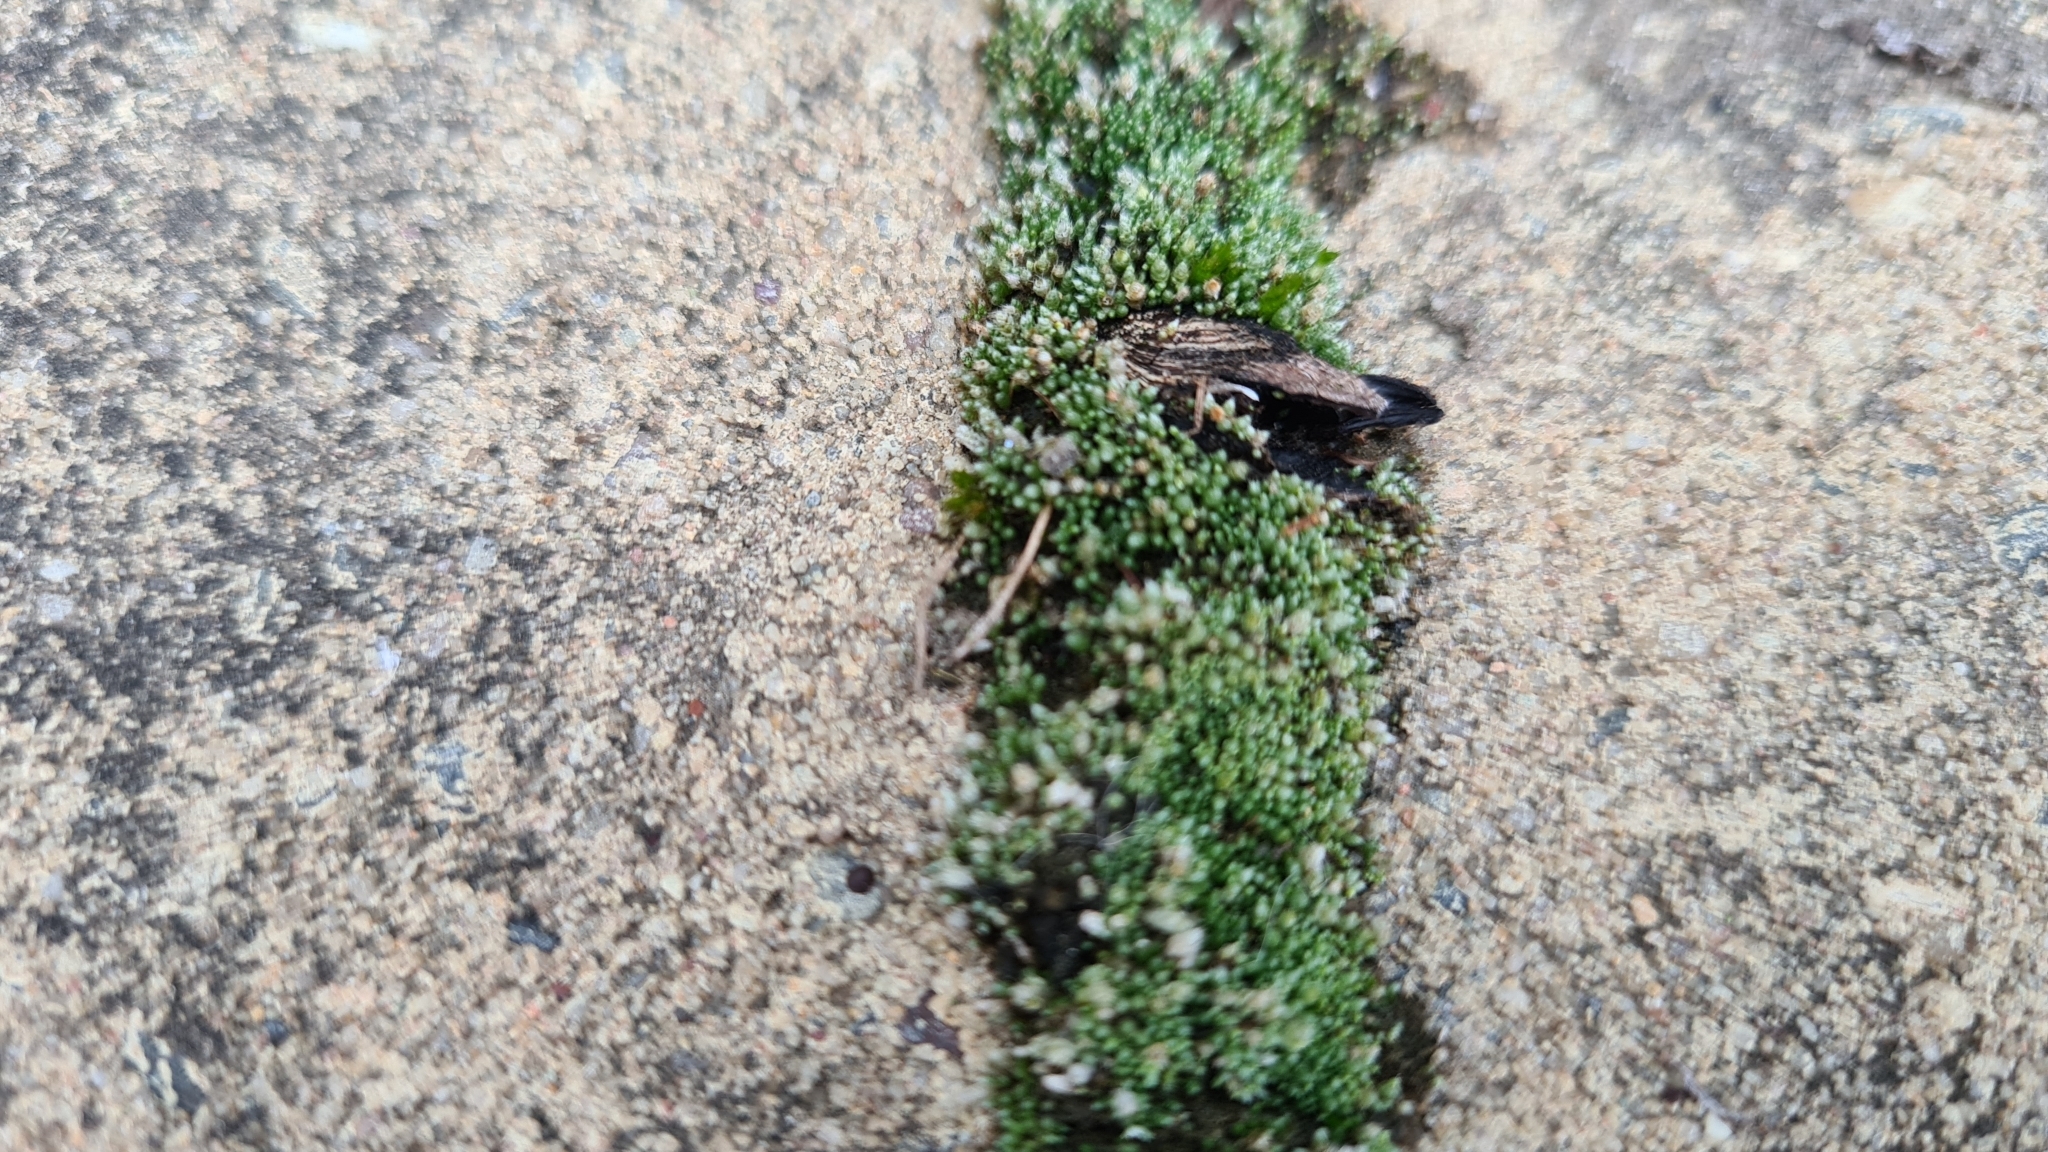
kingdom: Plantae
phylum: Bryophyta
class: Bryopsida
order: Bryales
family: Bryaceae
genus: Bryum
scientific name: Bryum argenteum
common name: Silver-moss
